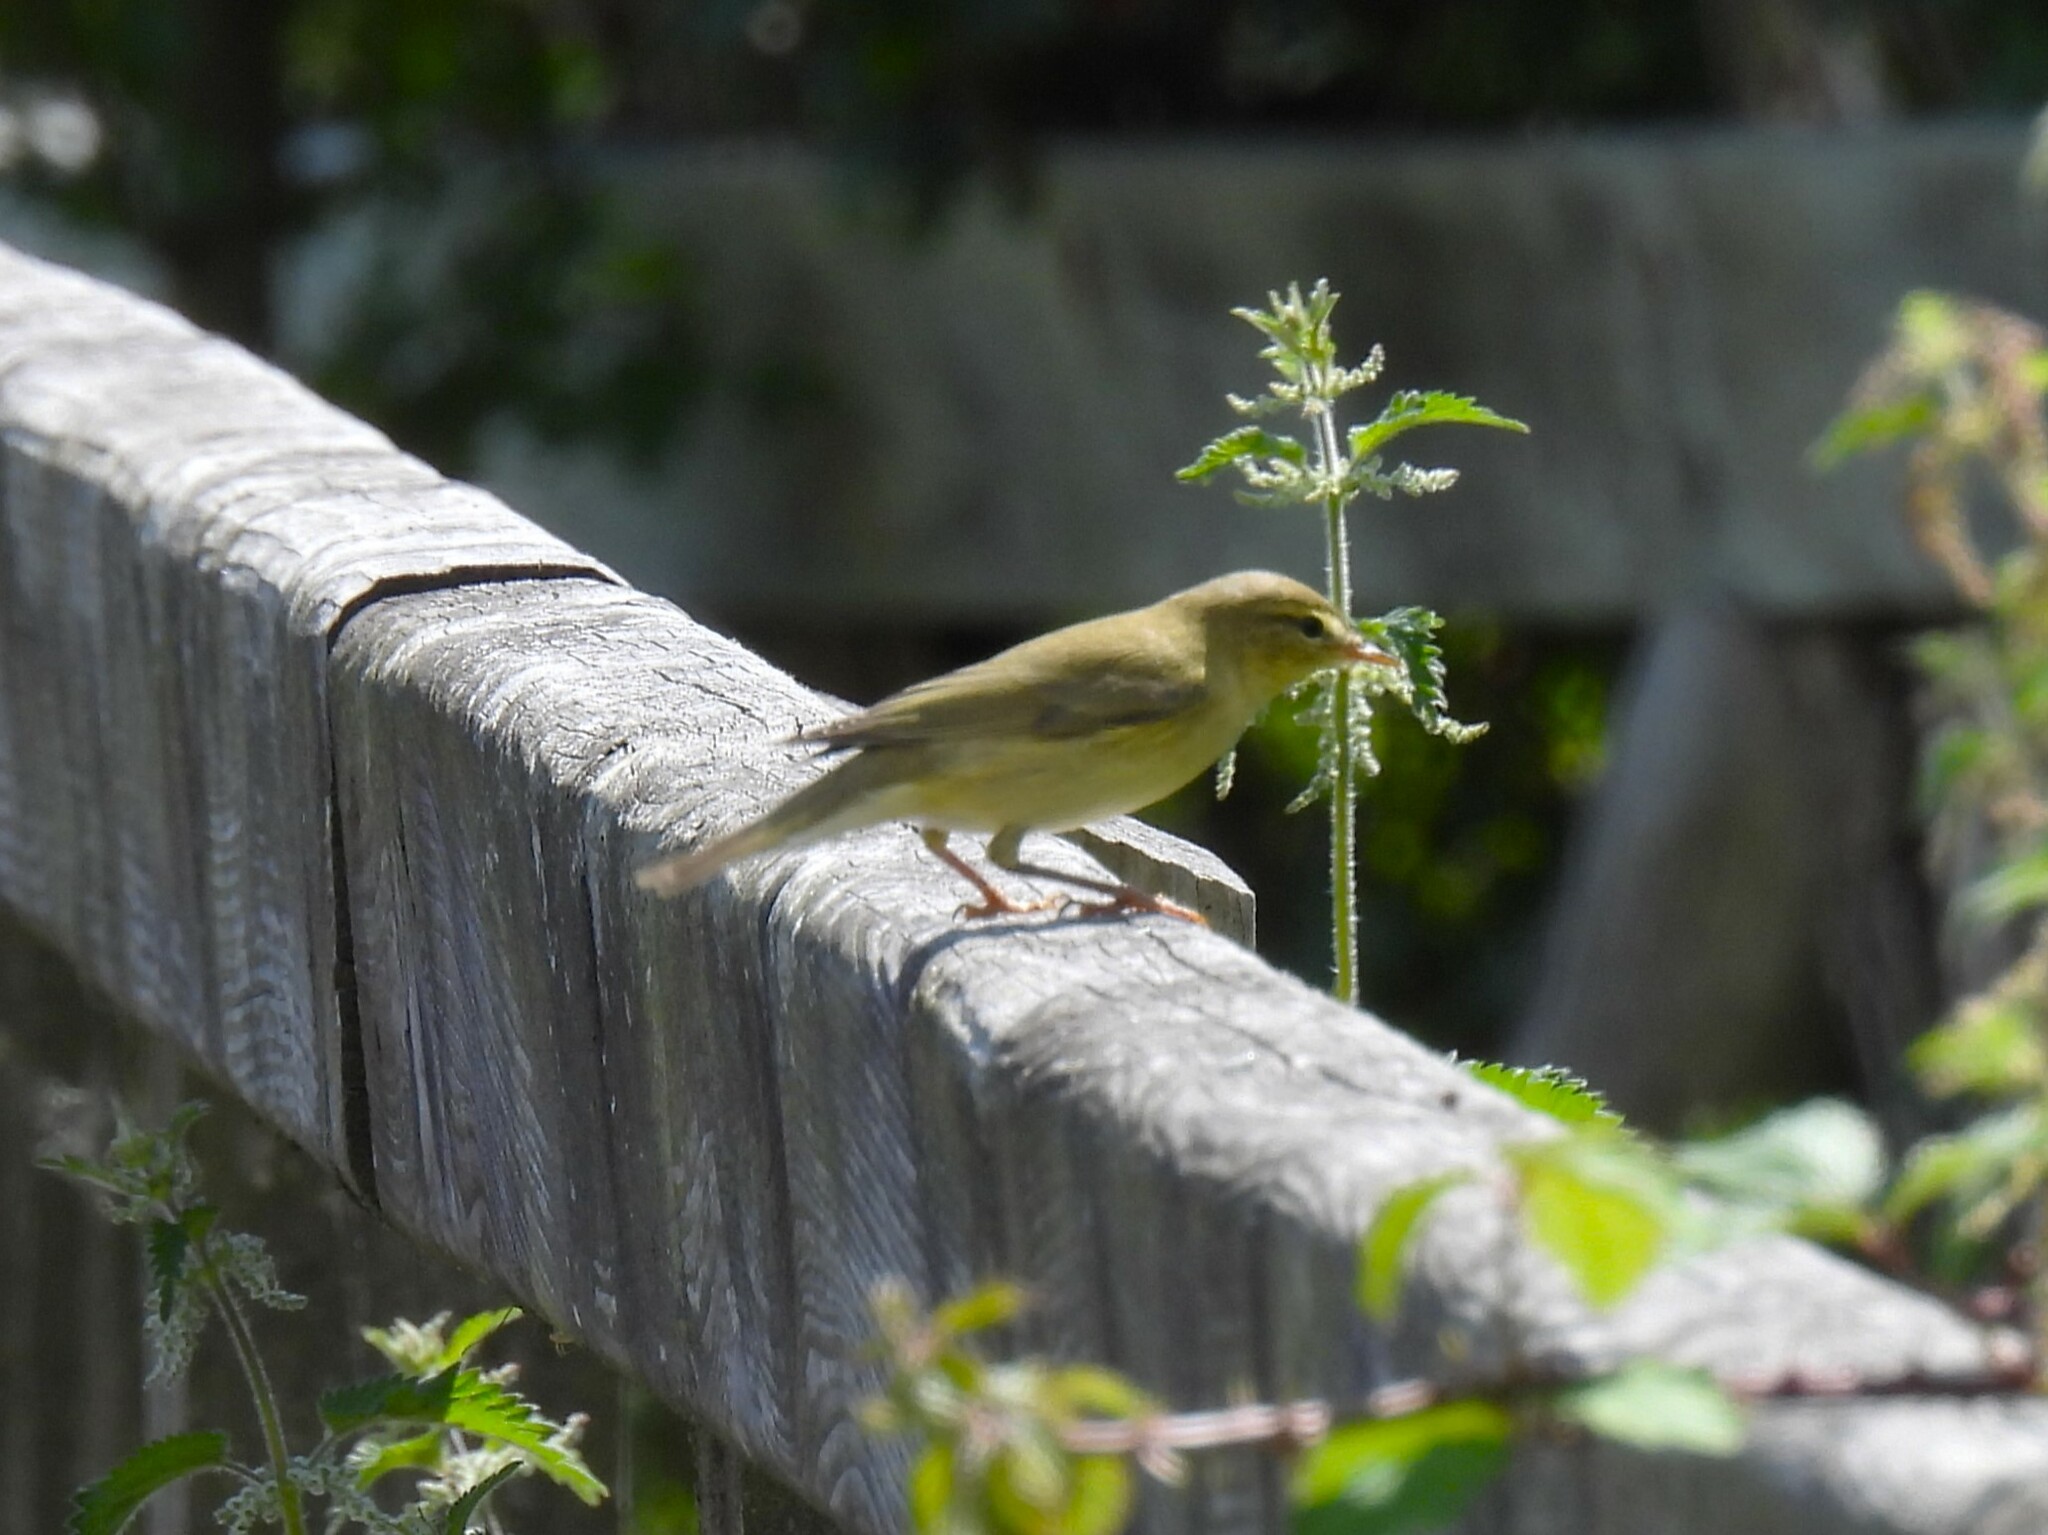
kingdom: Animalia
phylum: Chordata
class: Aves
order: Passeriformes
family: Phylloscopidae
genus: Phylloscopus
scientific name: Phylloscopus trochilus
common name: Willow warbler
